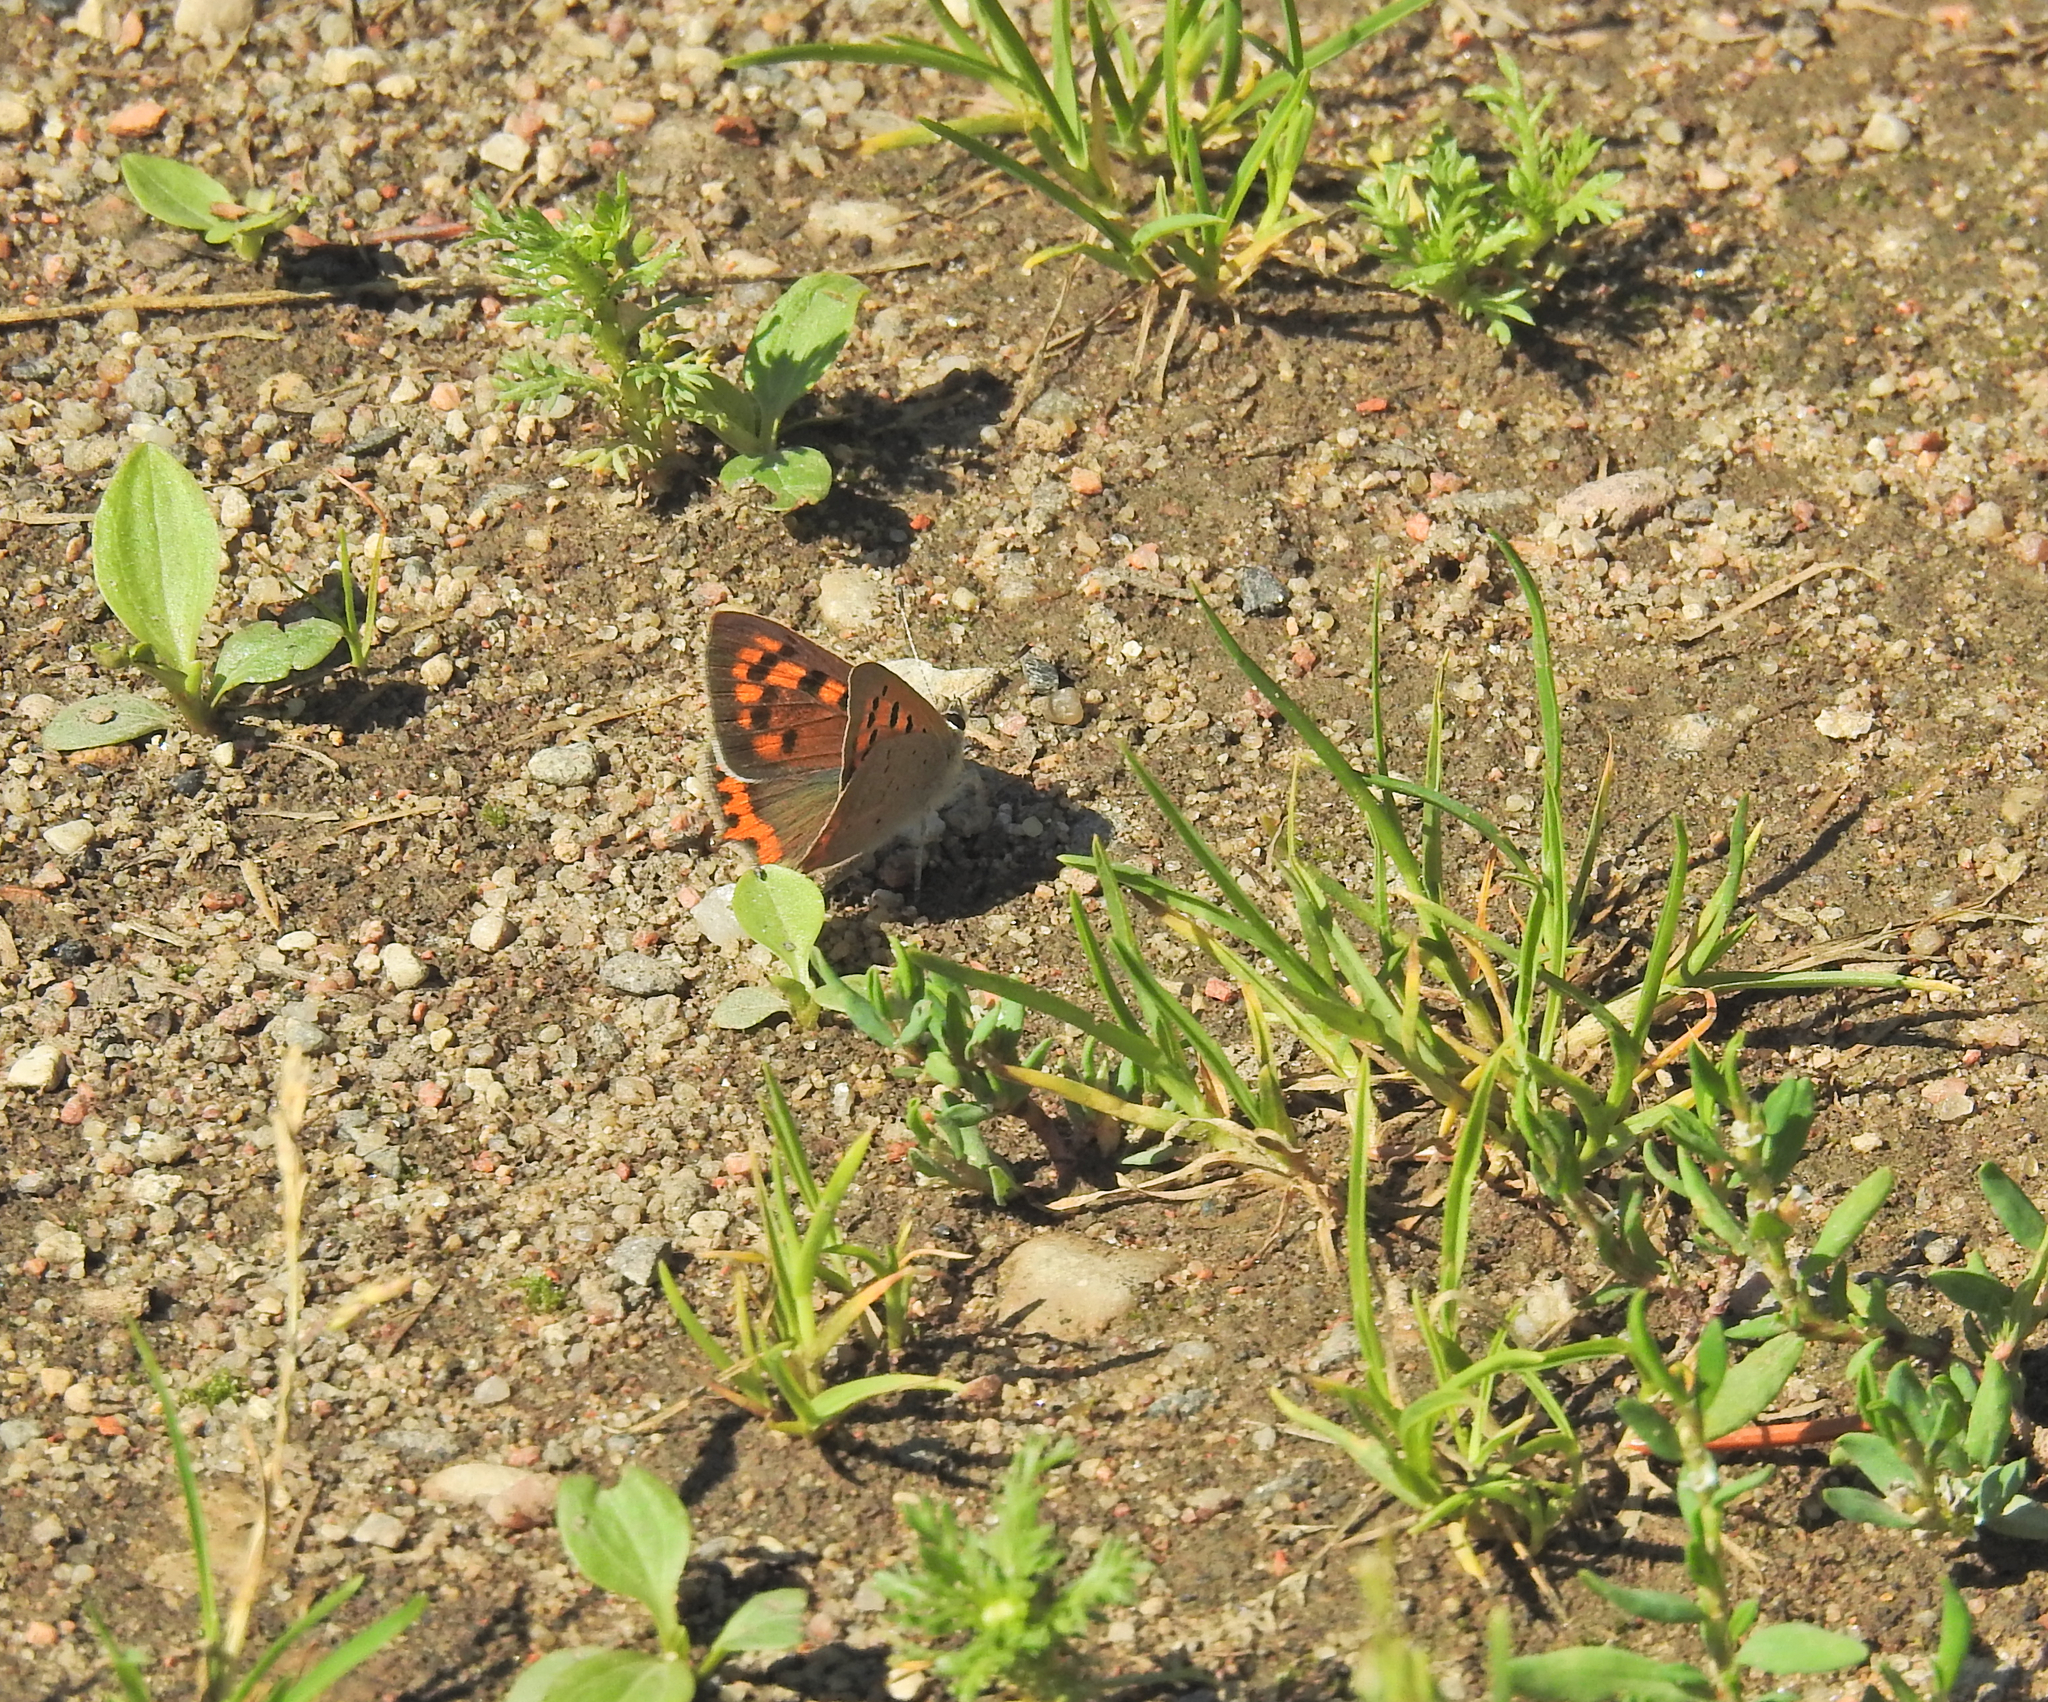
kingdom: Animalia
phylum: Arthropoda
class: Insecta
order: Lepidoptera
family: Lycaenidae
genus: Lycaena
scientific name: Lycaena phlaeas
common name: Small copper
